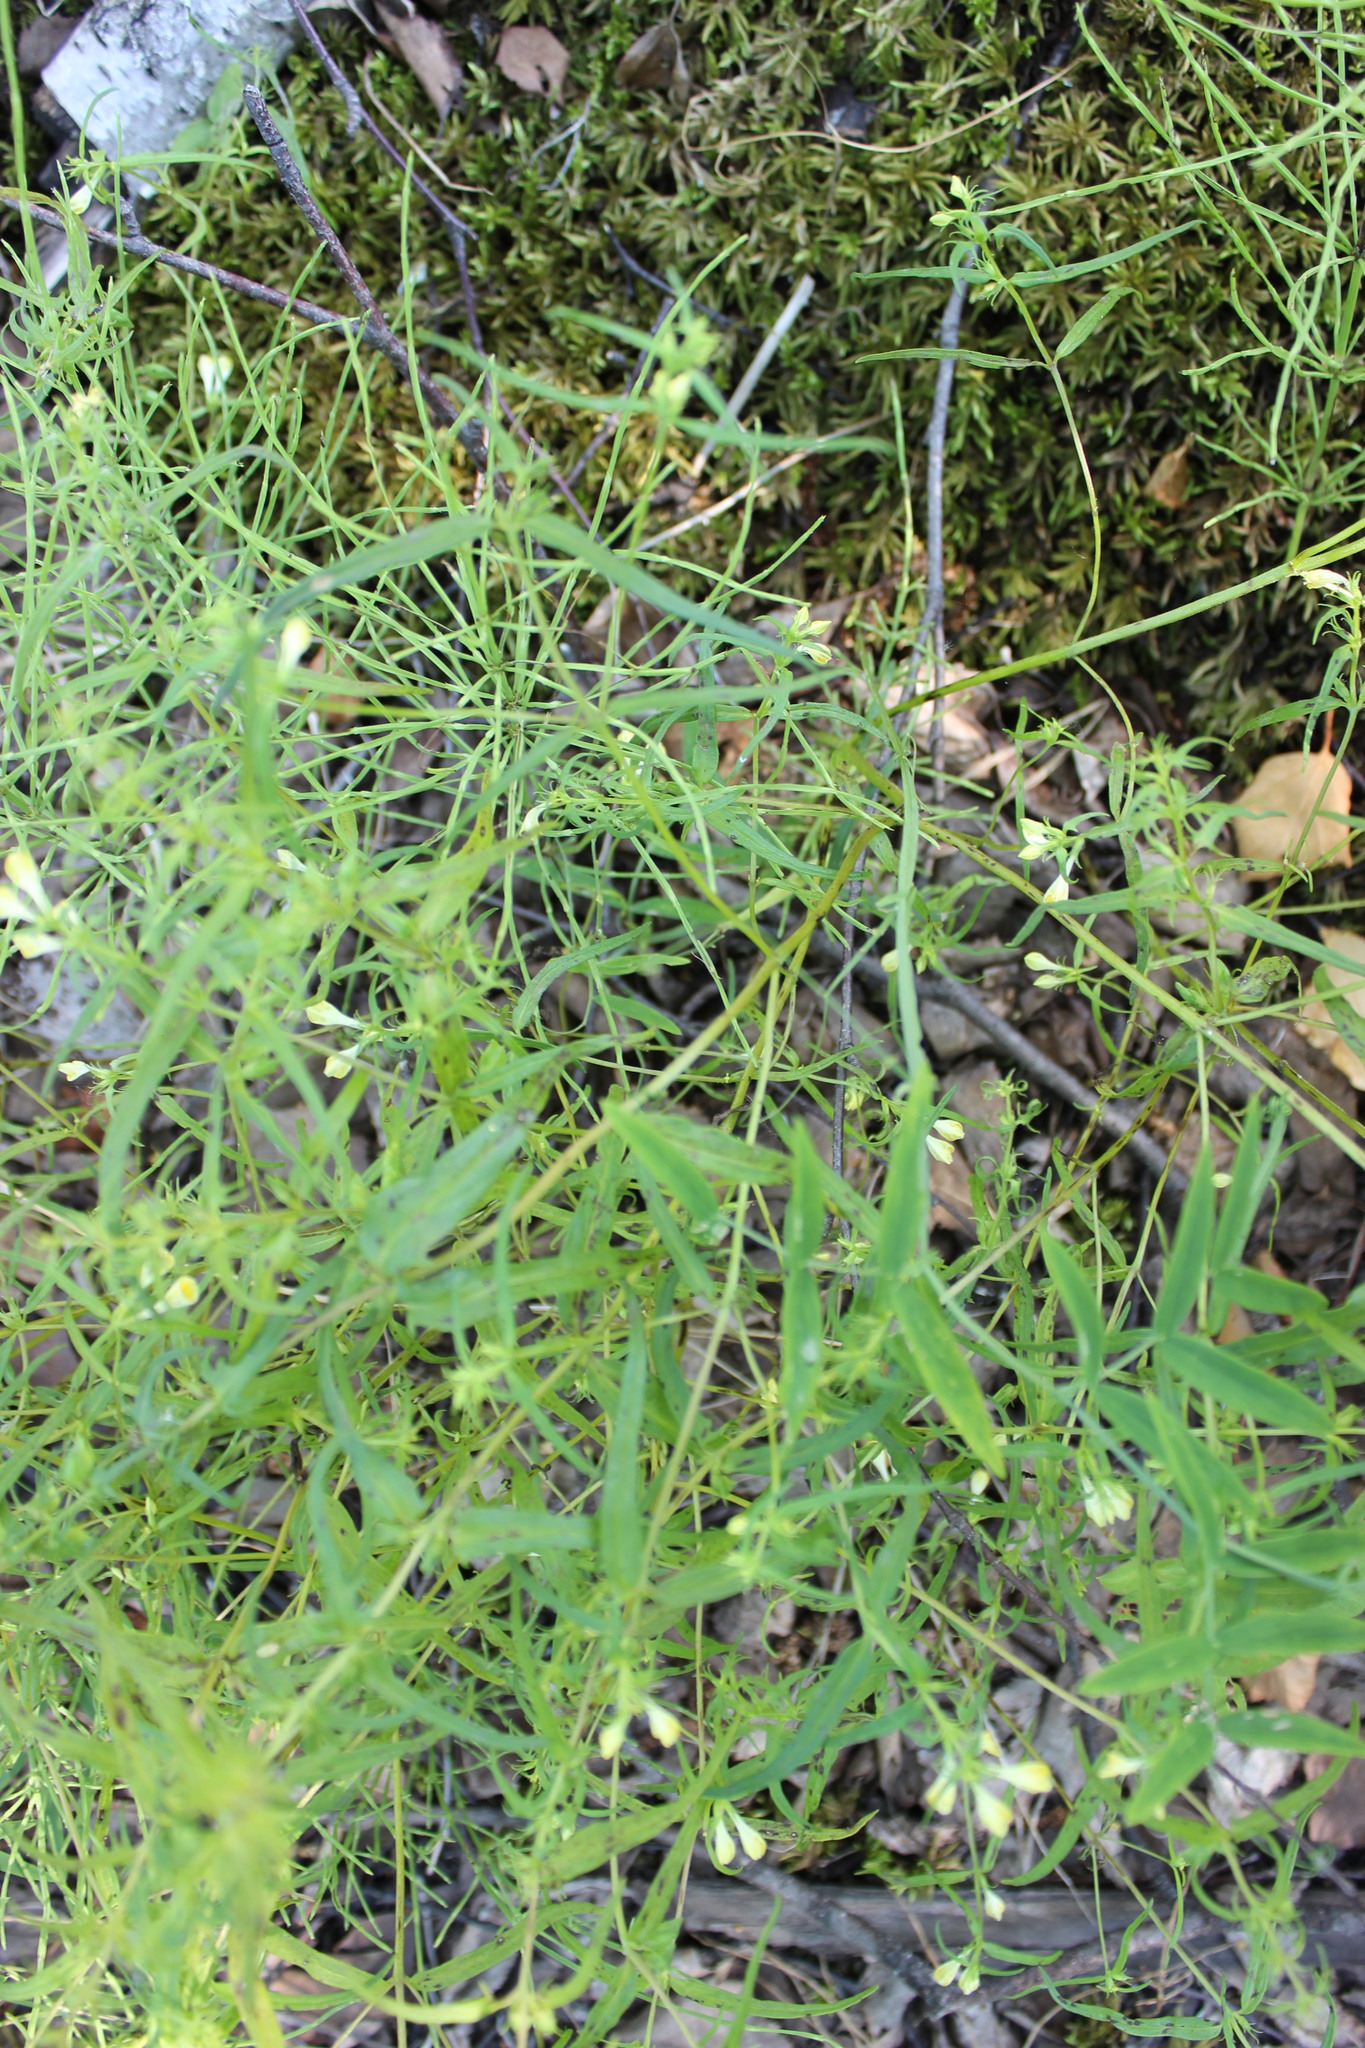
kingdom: Plantae
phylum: Tracheophyta
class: Magnoliopsida
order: Lamiales
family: Orobanchaceae
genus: Melampyrum
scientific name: Melampyrum pratense
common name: Common cow-wheat
